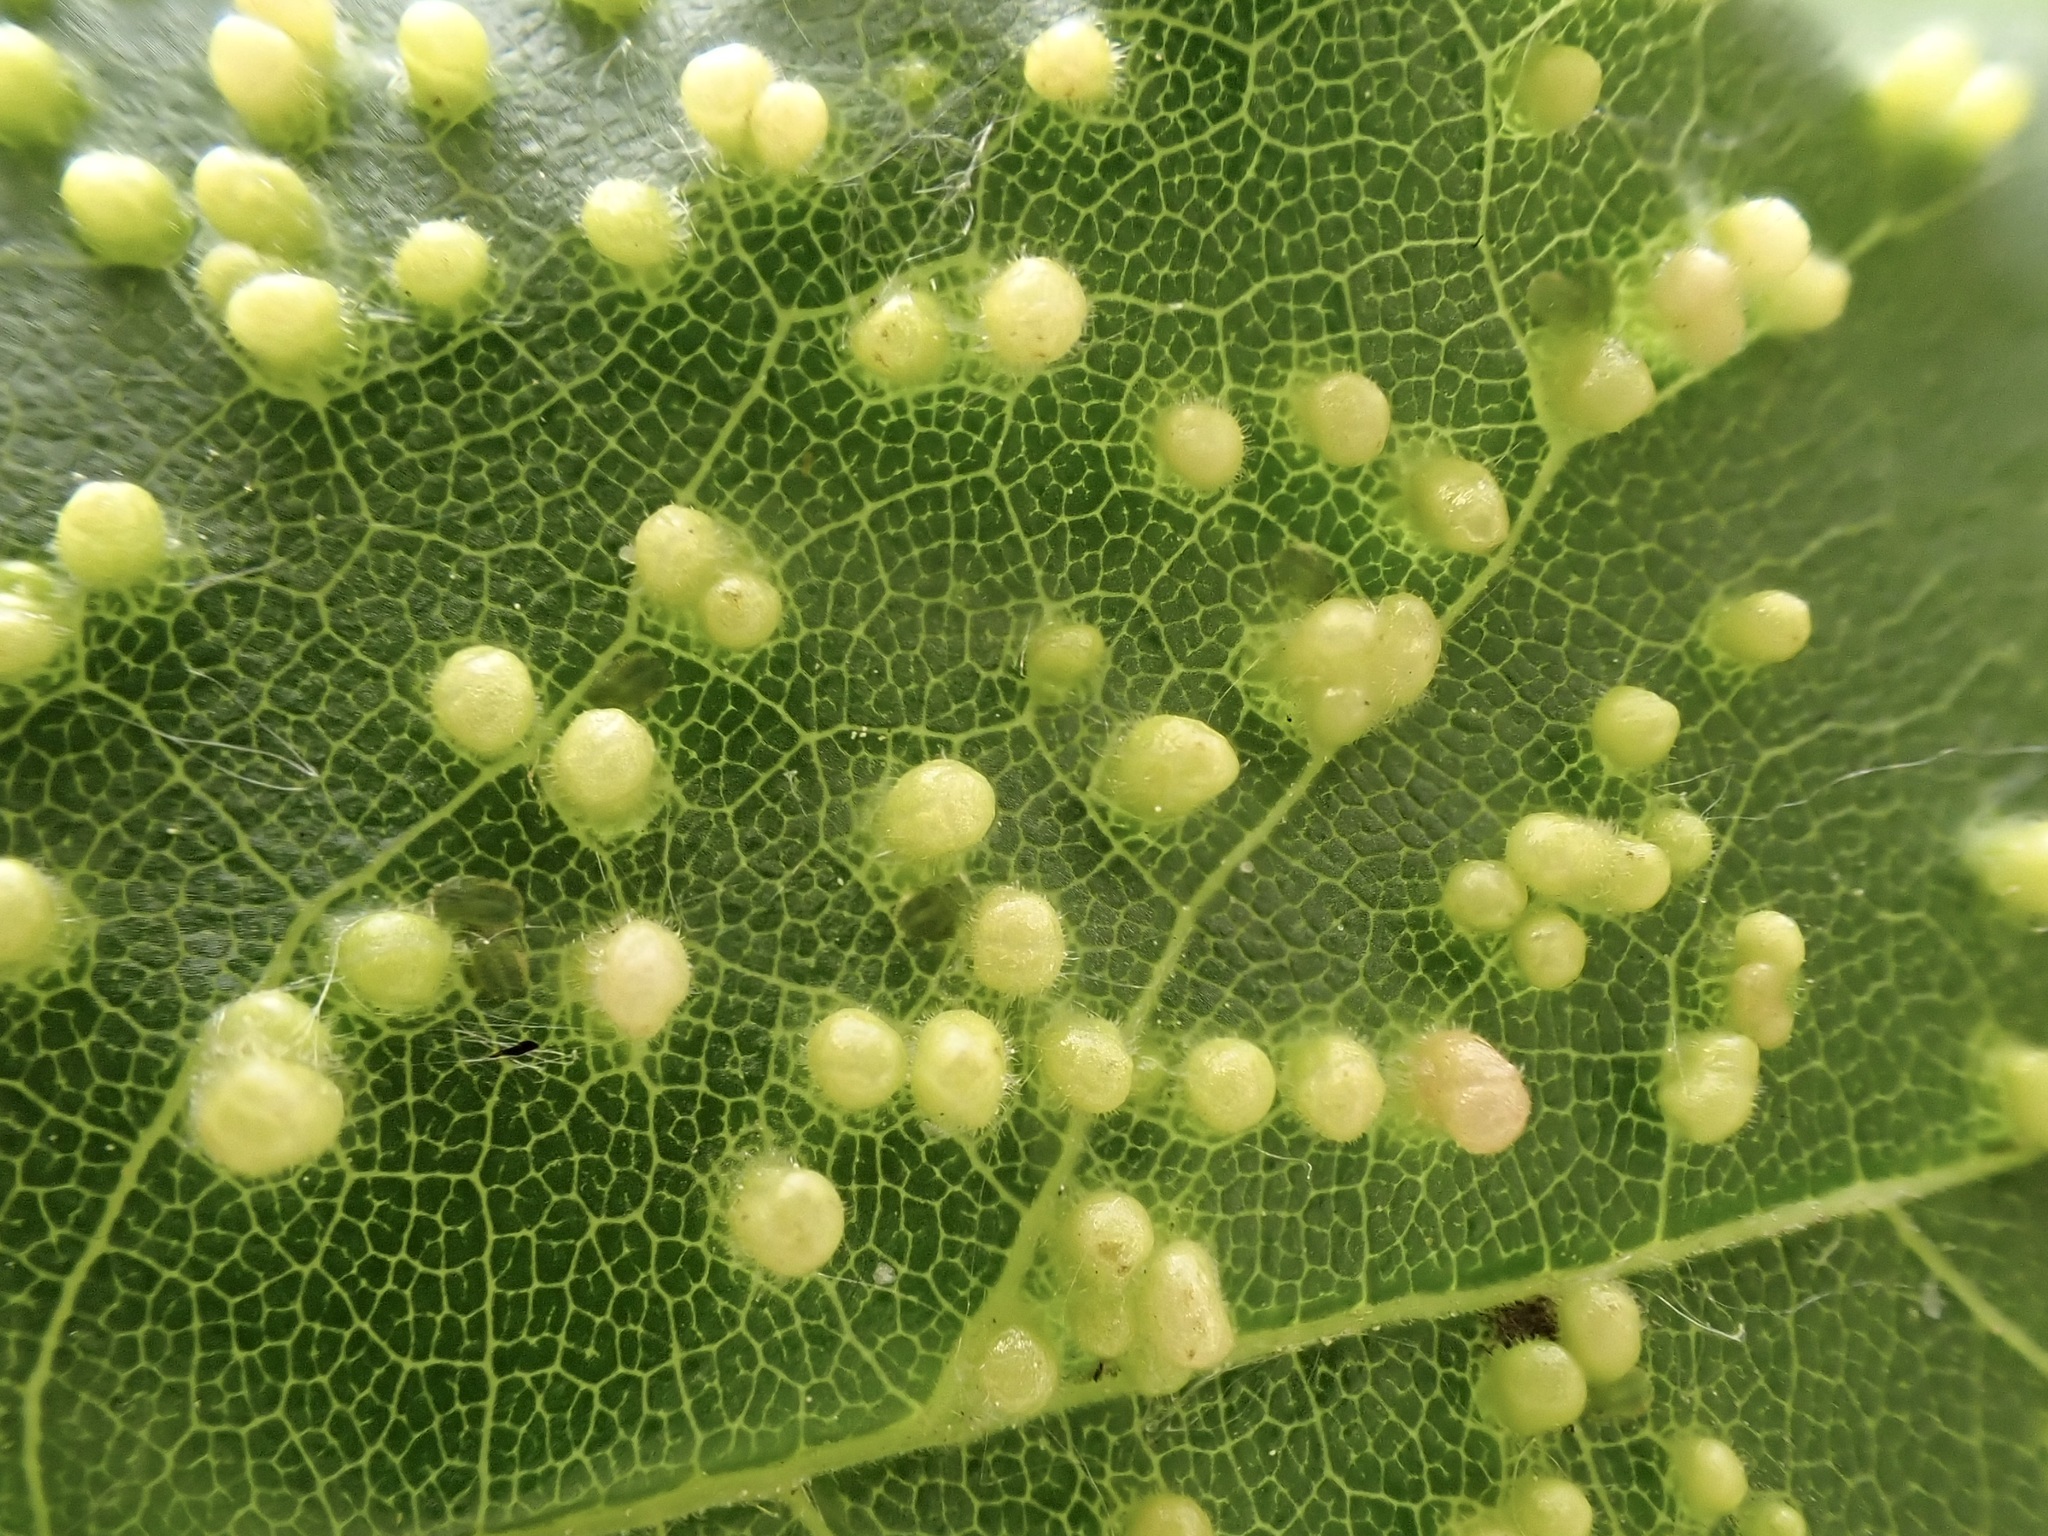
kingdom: Animalia
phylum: Arthropoda
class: Arachnida
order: Trombidiformes
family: Eriophyidae
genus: Aceria
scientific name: Aceria myriadeum
